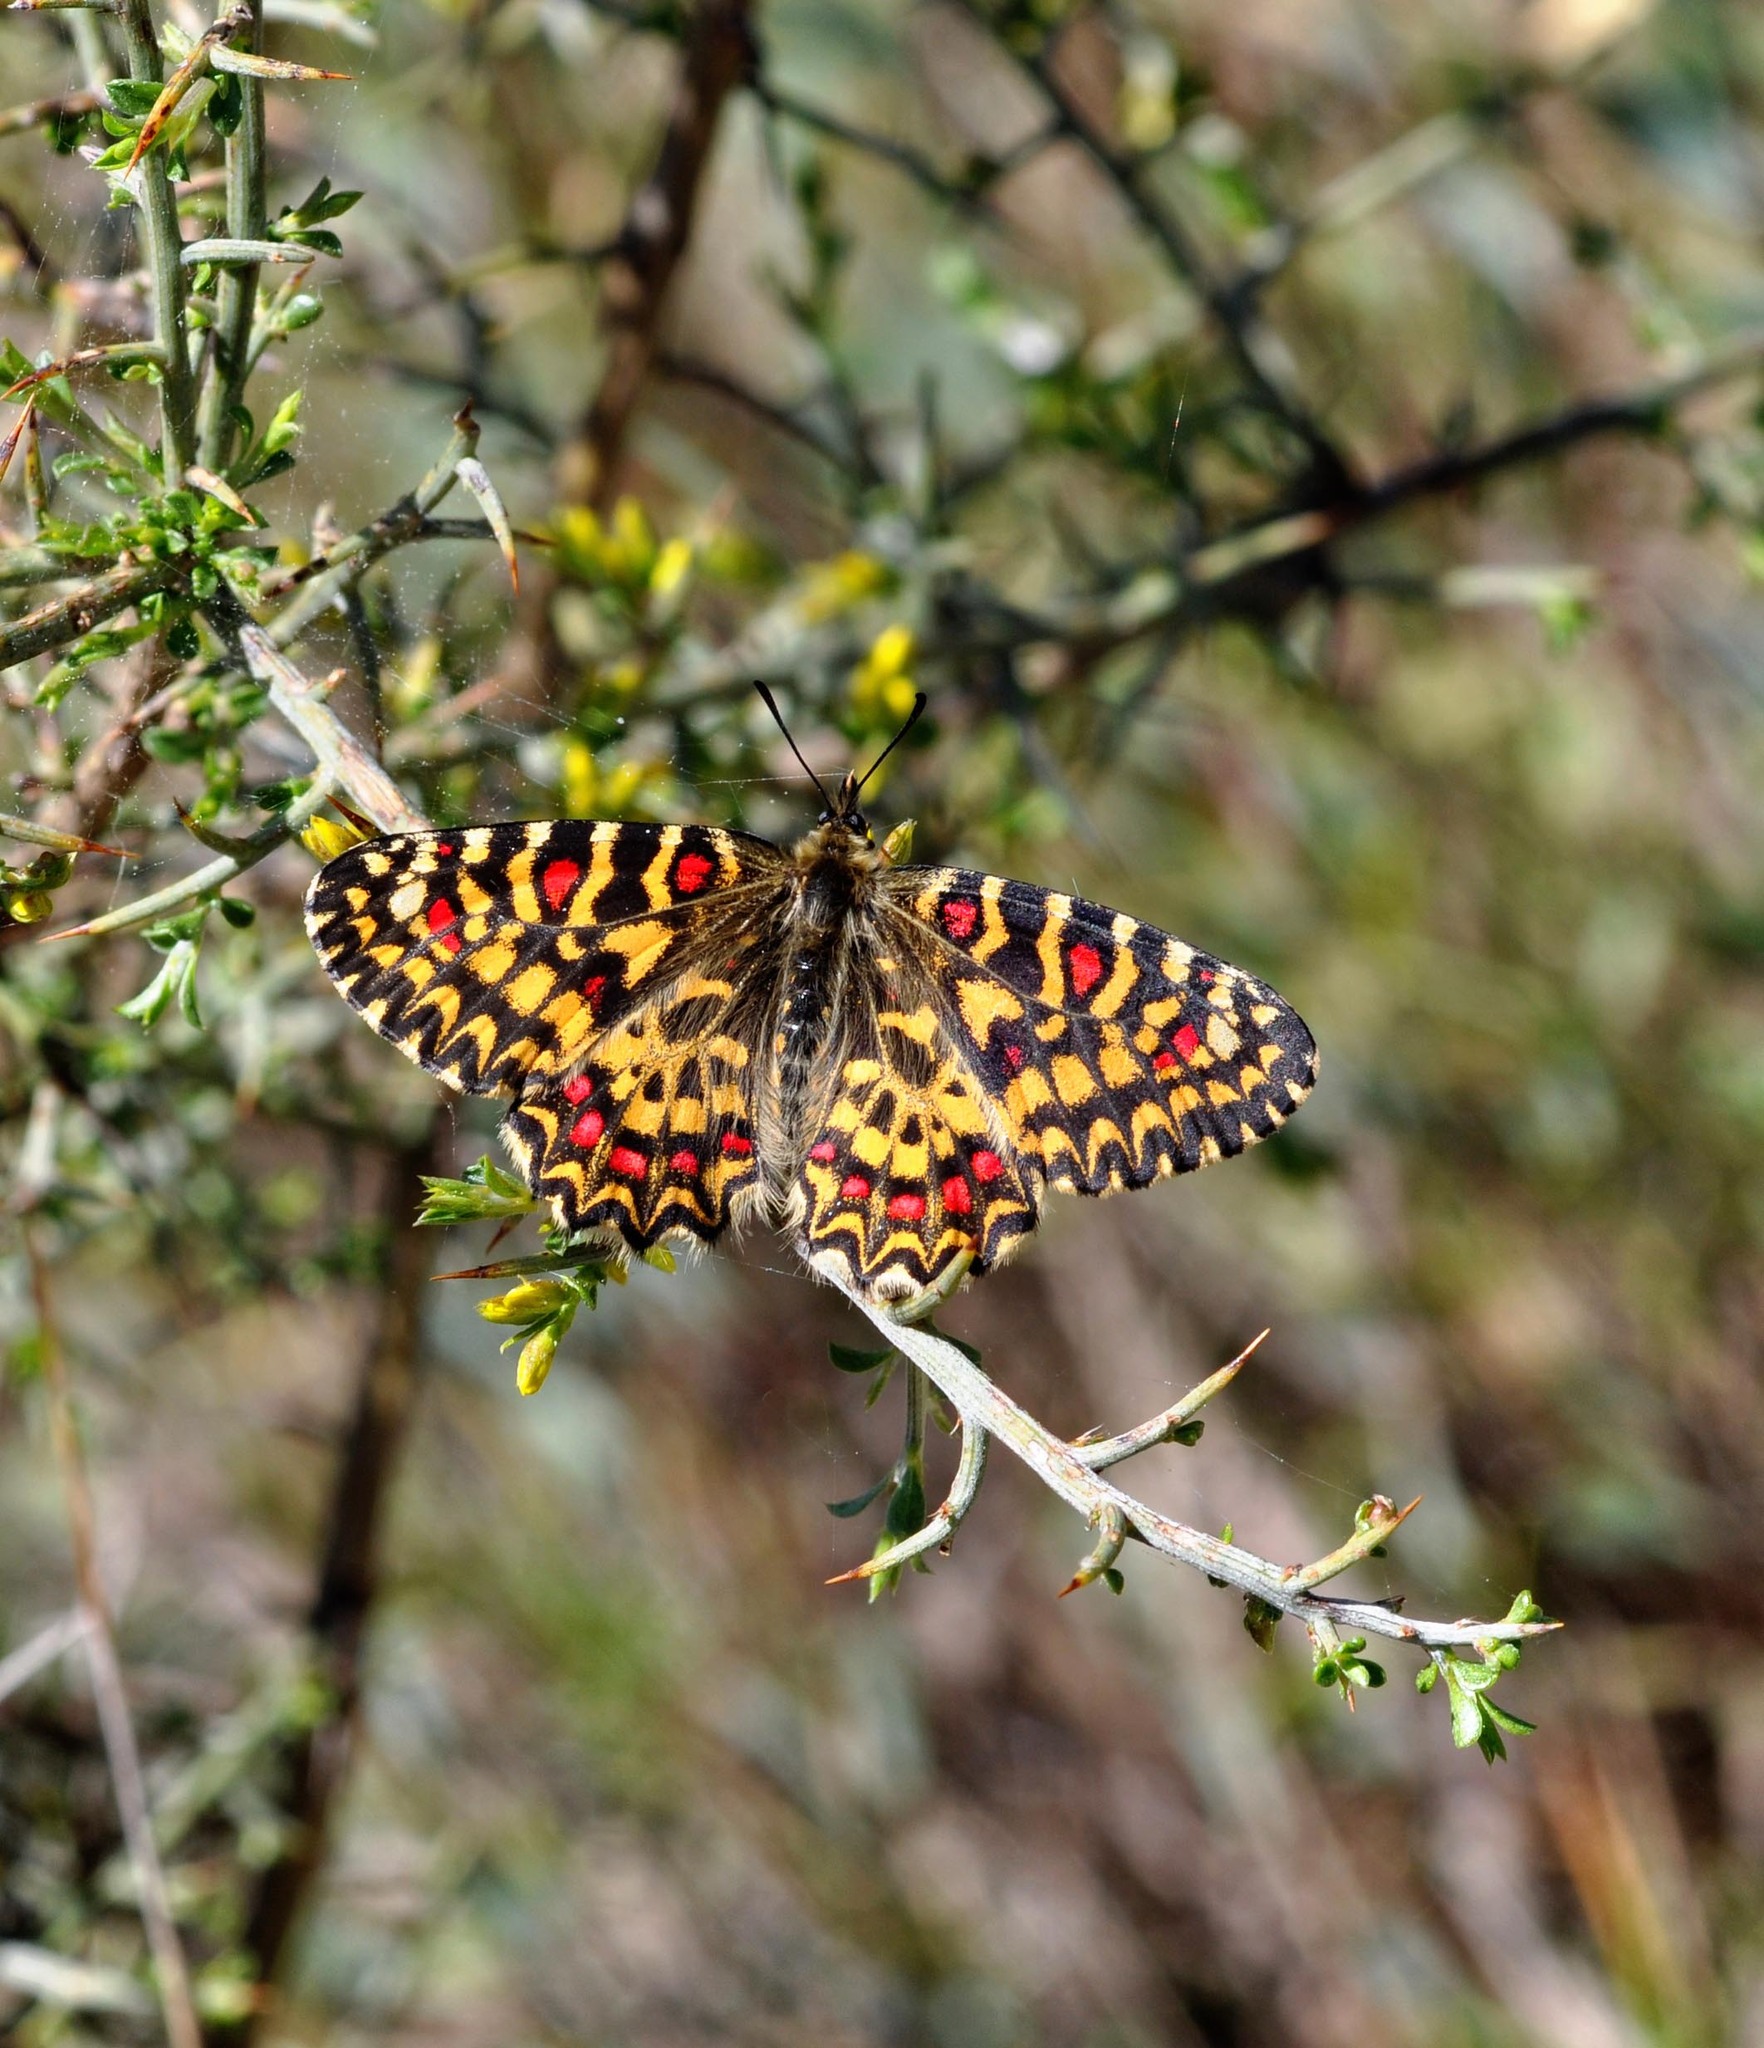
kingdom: Animalia
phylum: Arthropoda
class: Insecta
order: Lepidoptera
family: Papilionidae
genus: Zerynthia
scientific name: Zerynthia rumina
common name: Spanish festoon
